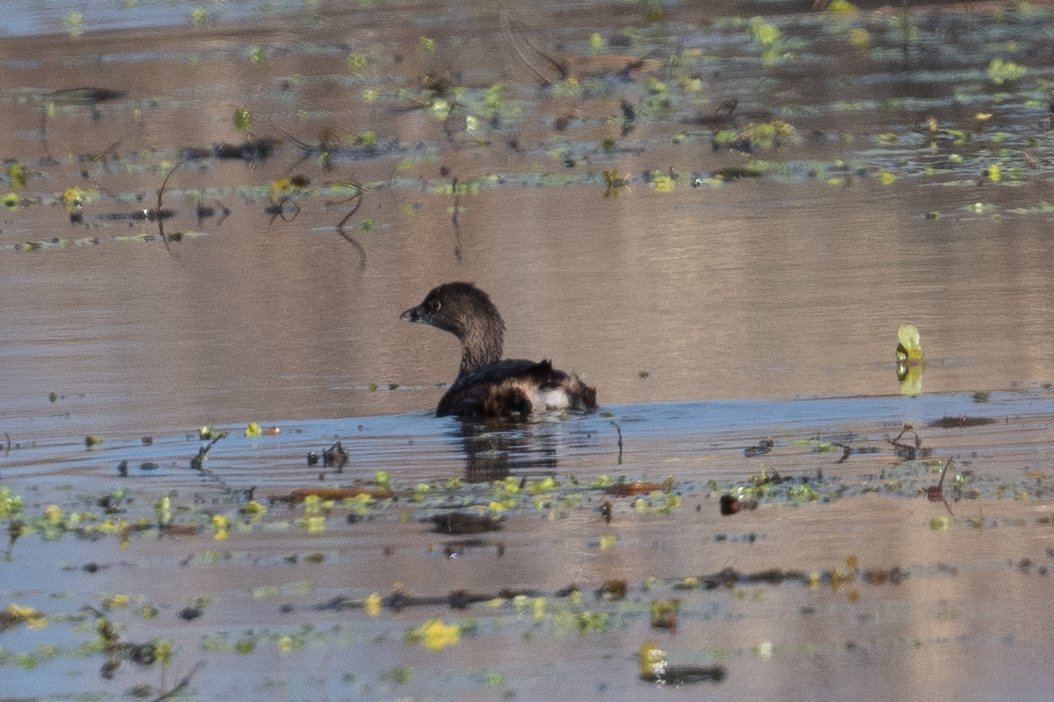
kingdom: Animalia
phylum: Chordata
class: Aves
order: Podicipediformes
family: Podicipedidae
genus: Podilymbus
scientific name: Podilymbus podiceps
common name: Pied-billed grebe
